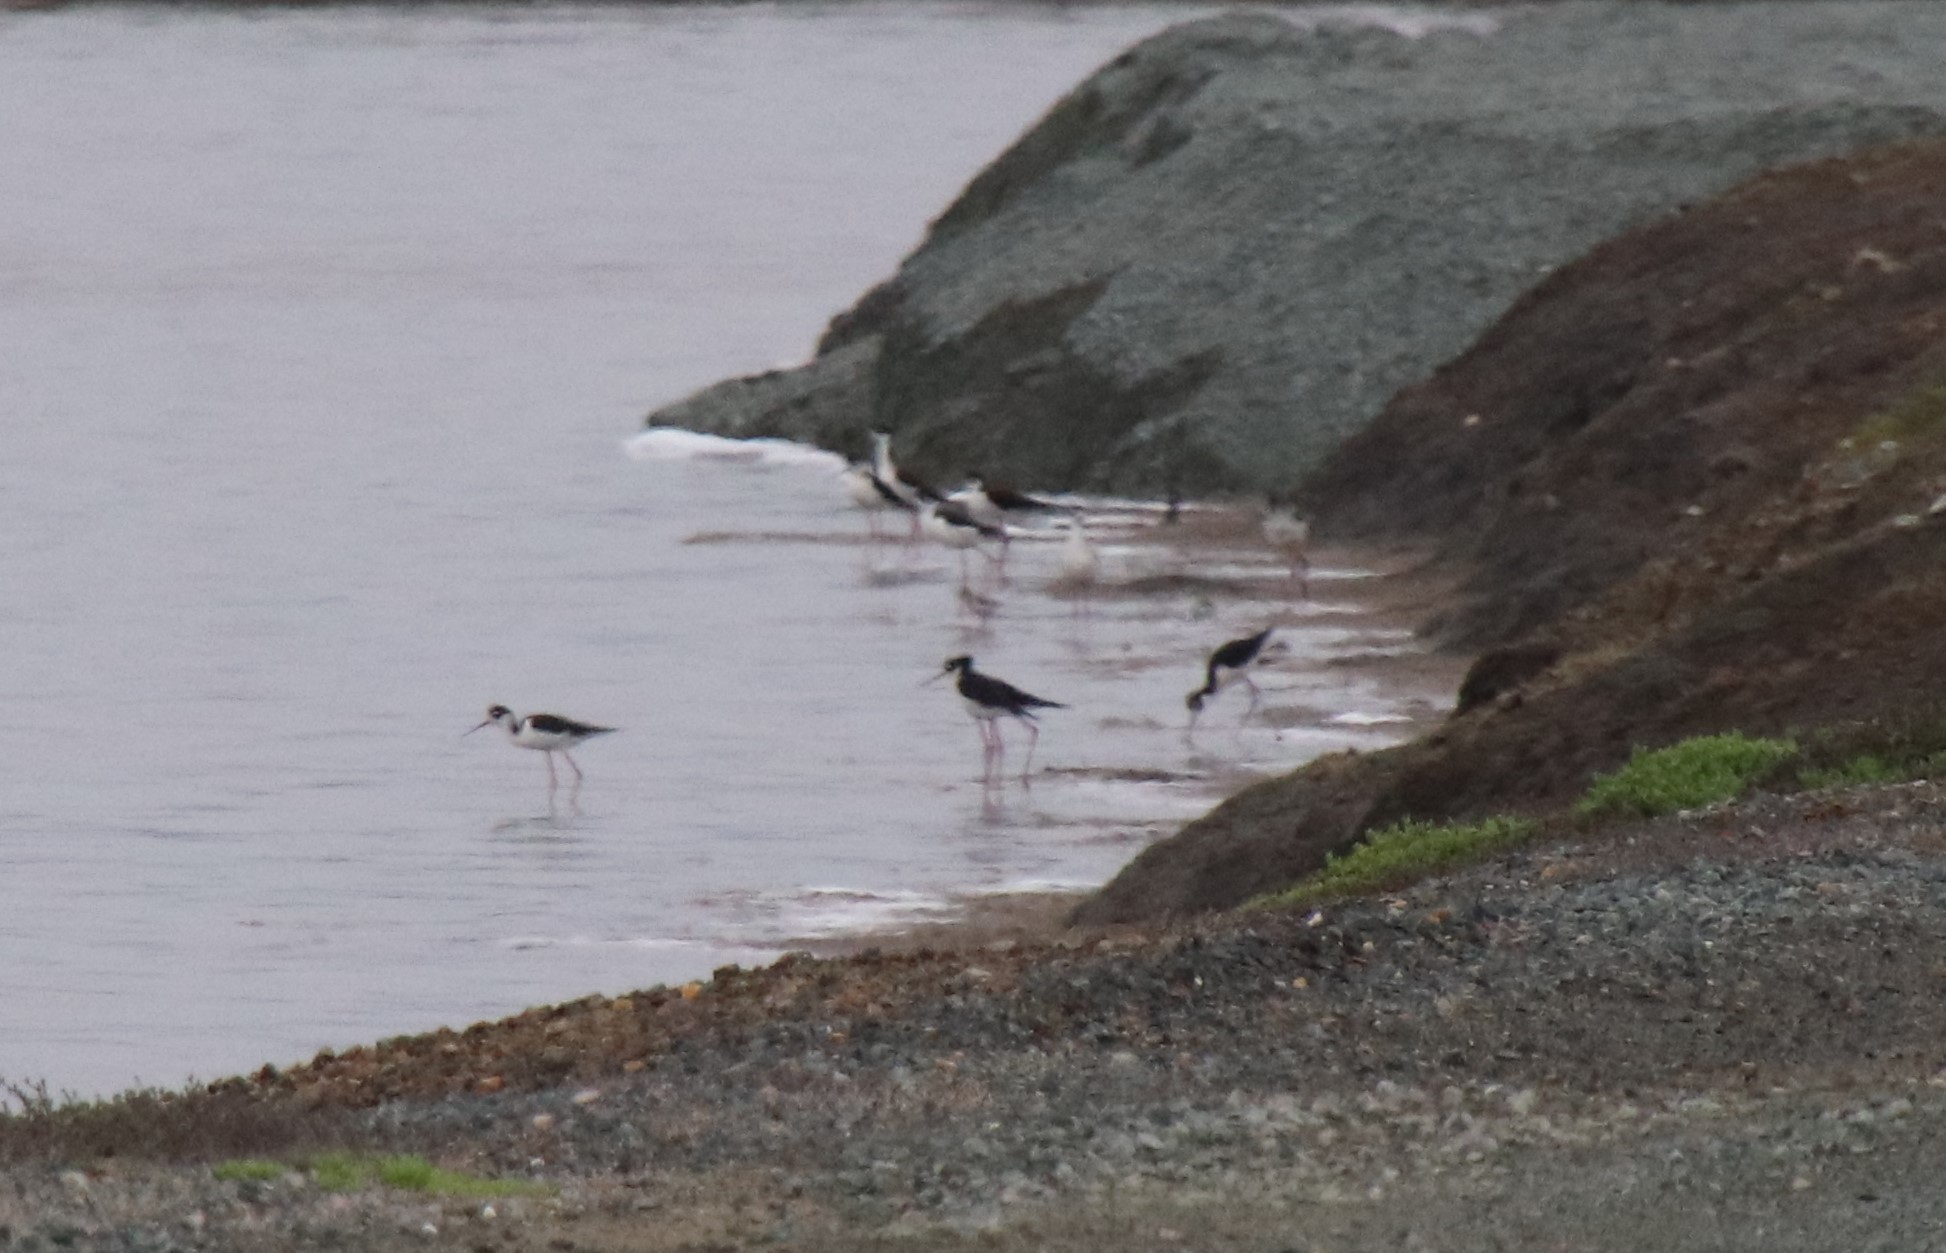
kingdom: Animalia
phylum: Chordata
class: Aves
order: Charadriiformes
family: Recurvirostridae
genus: Himantopus
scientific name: Himantopus mexicanus
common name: Black-necked stilt
